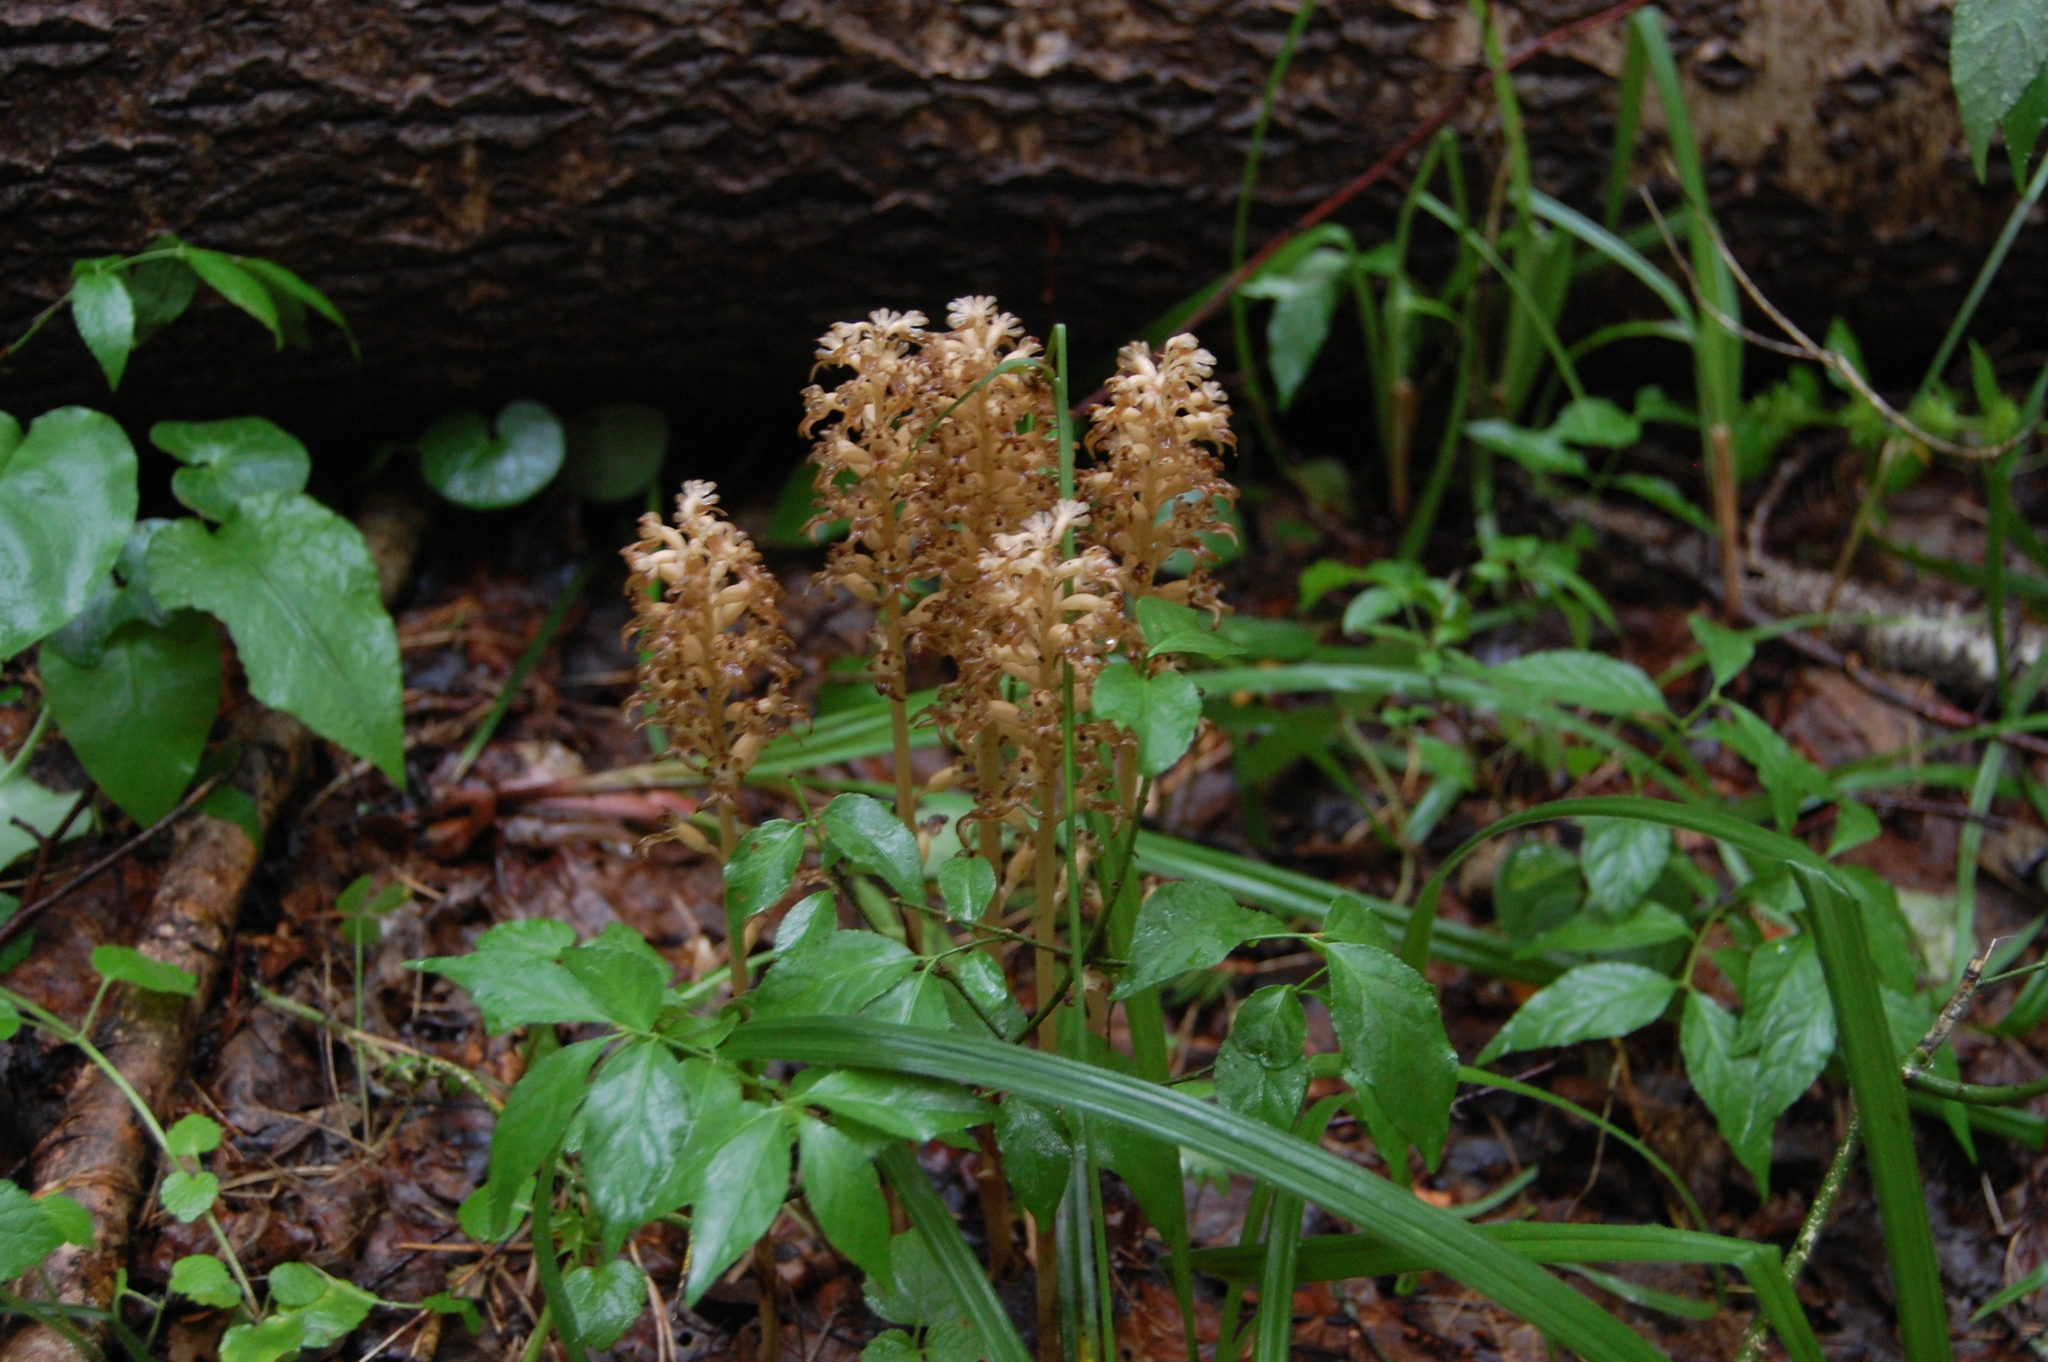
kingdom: Plantae
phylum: Tracheophyta
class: Liliopsida
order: Asparagales
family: Orchidaceae
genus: Neottia
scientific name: Neottia nidus-avis
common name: Bird's-nest orchid
